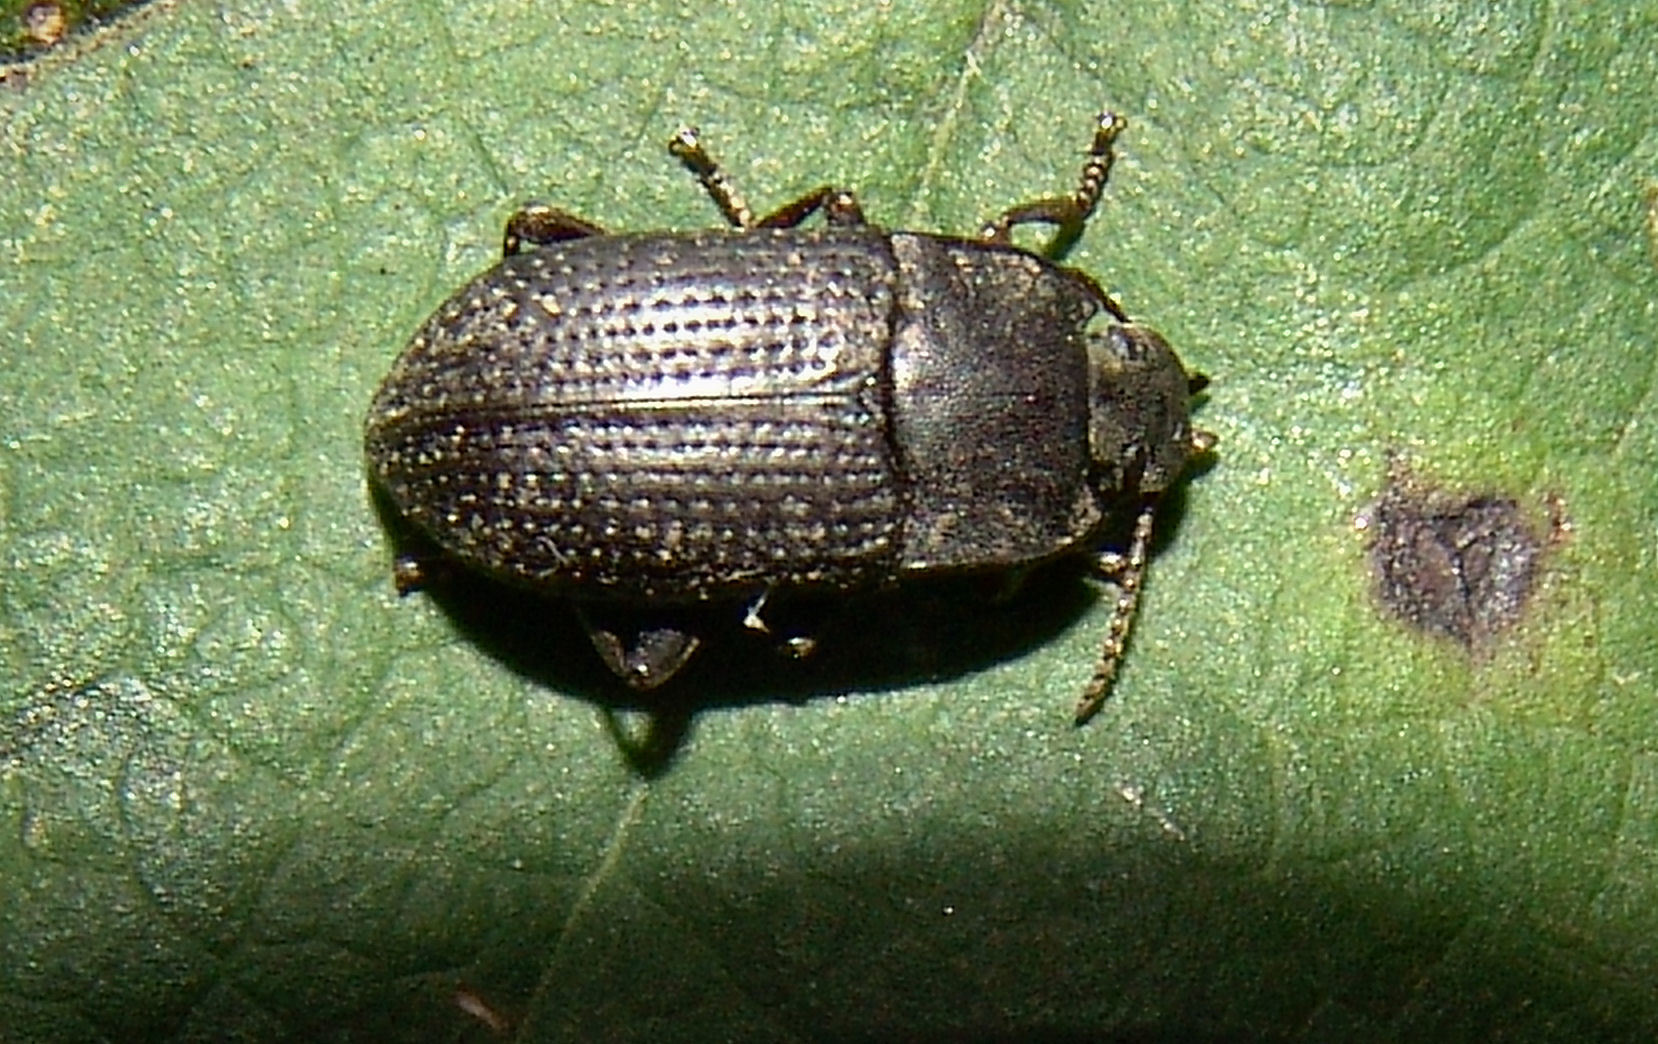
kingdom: Animalia
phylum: Arthropoda
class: Insecta
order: Coleoptera
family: Tenebrionidae
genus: Asiopus
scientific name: Asiopus
